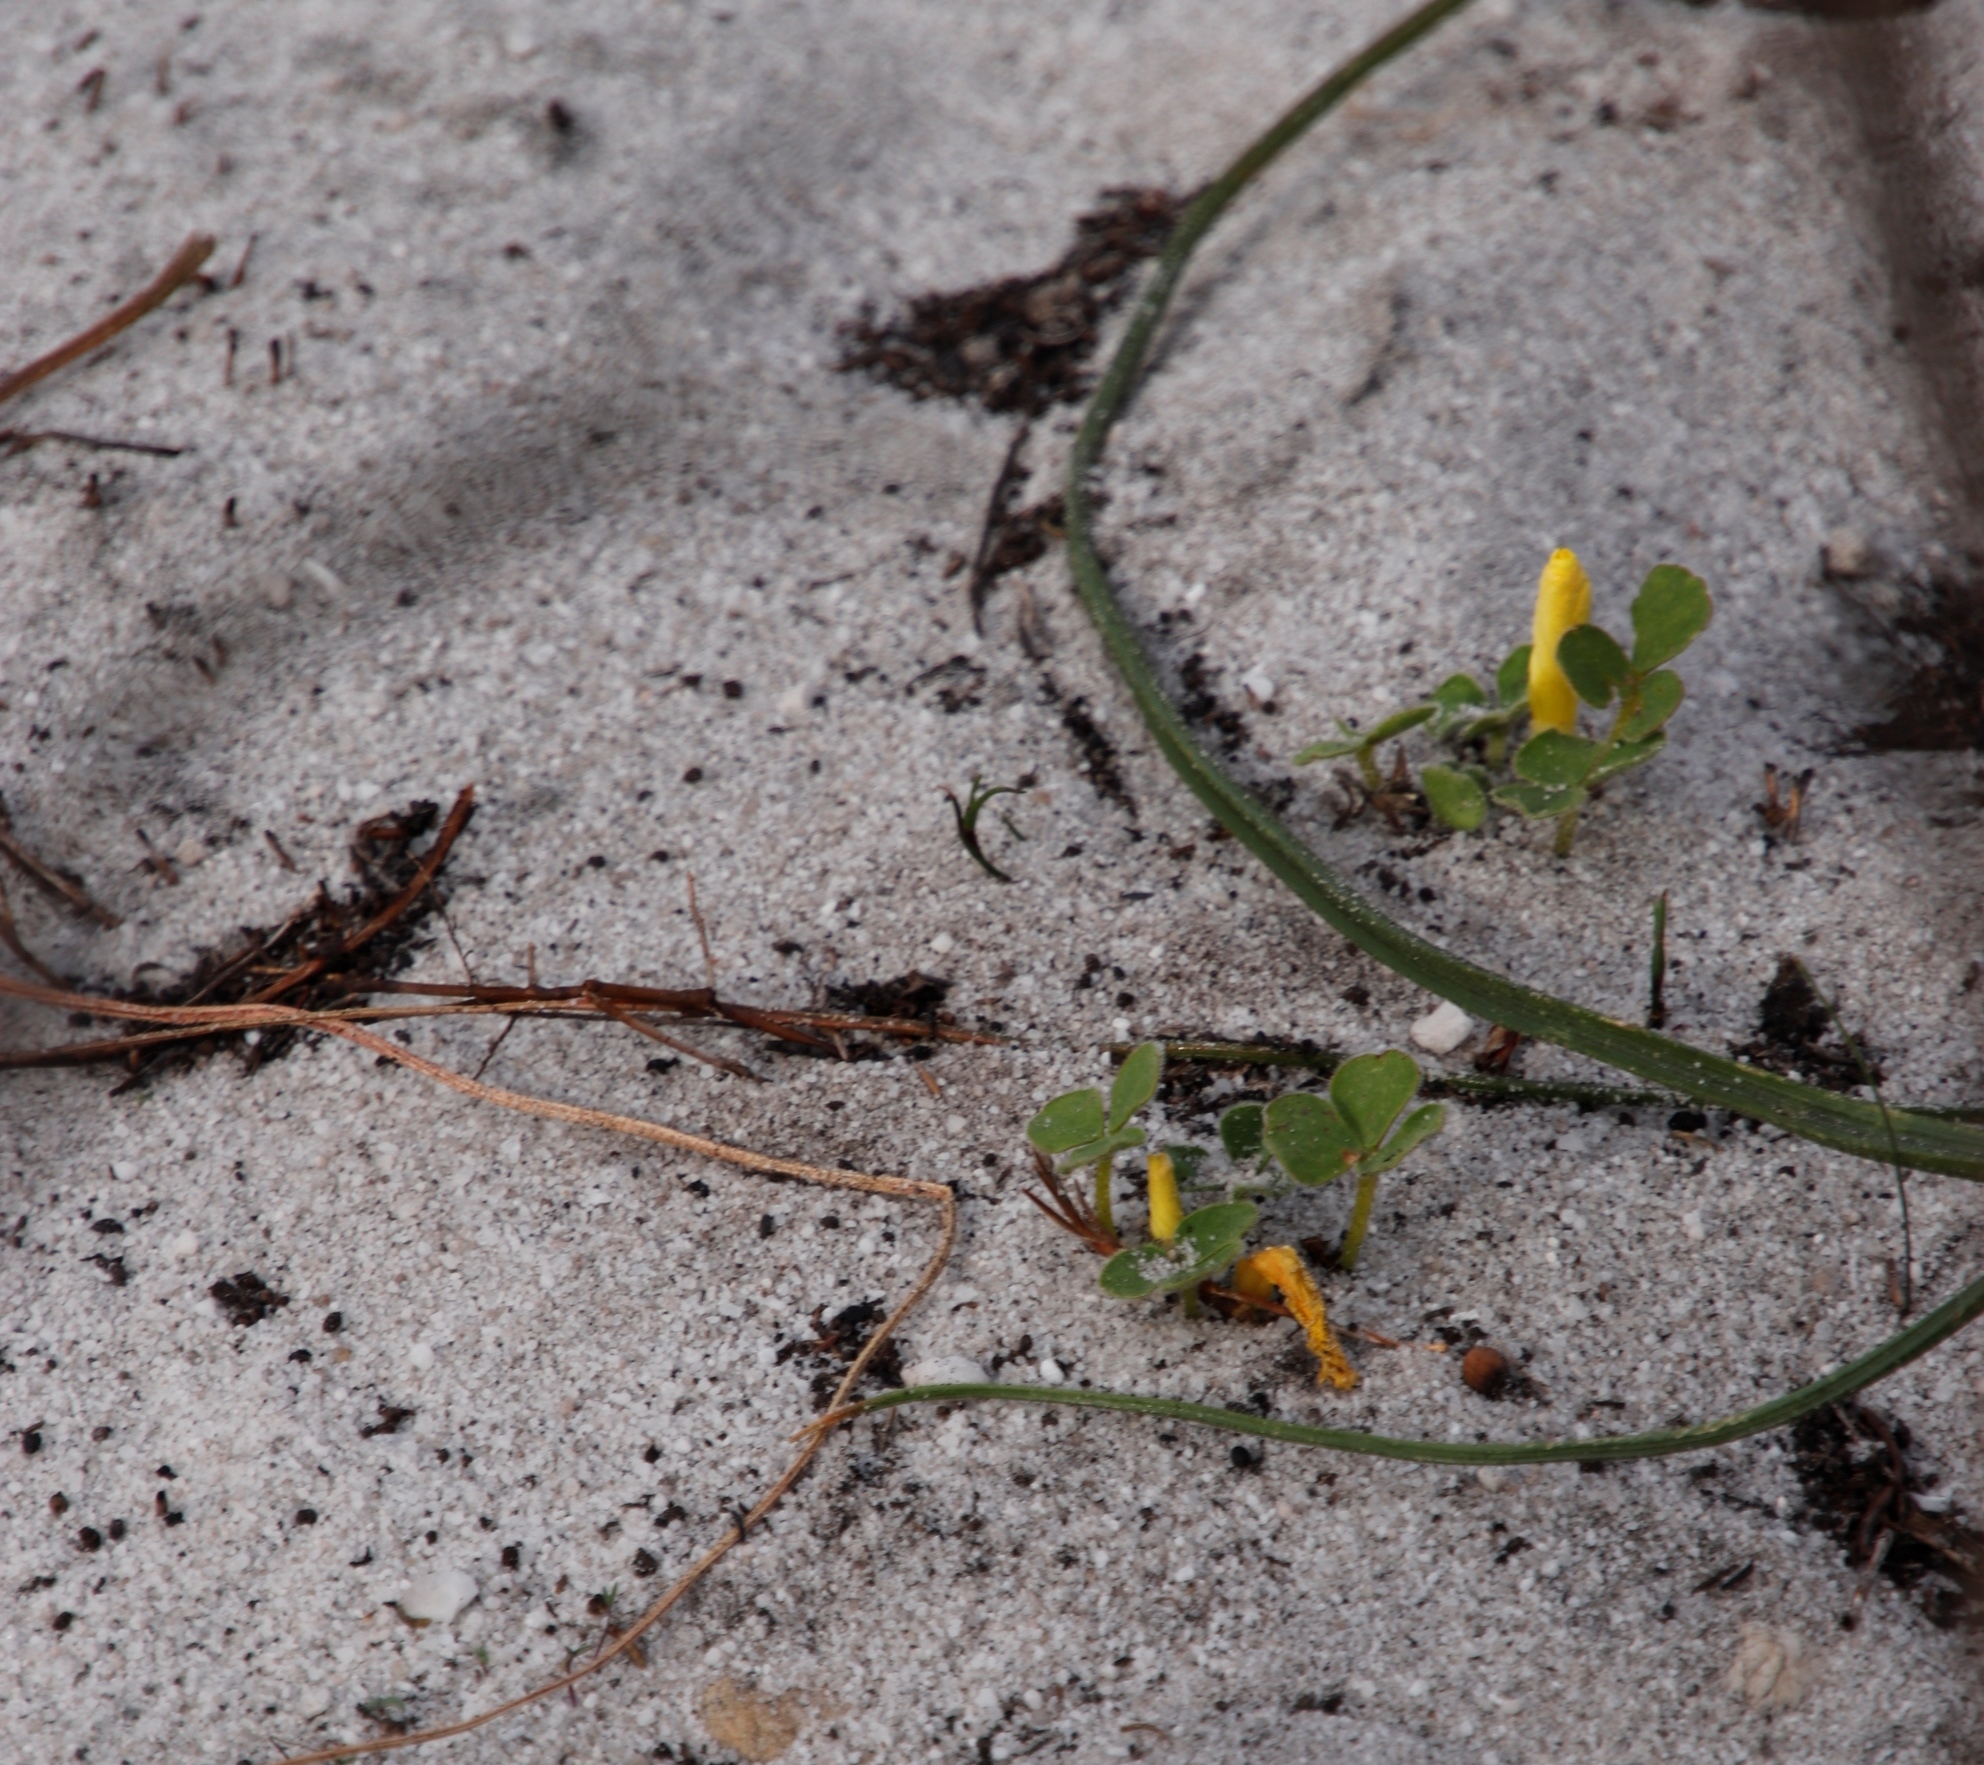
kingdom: Plantae
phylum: Tracheophyta
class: Magnoliopsida
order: Oxalidales
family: Oxalidaceae
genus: Oxalis
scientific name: Oxalis luteola
